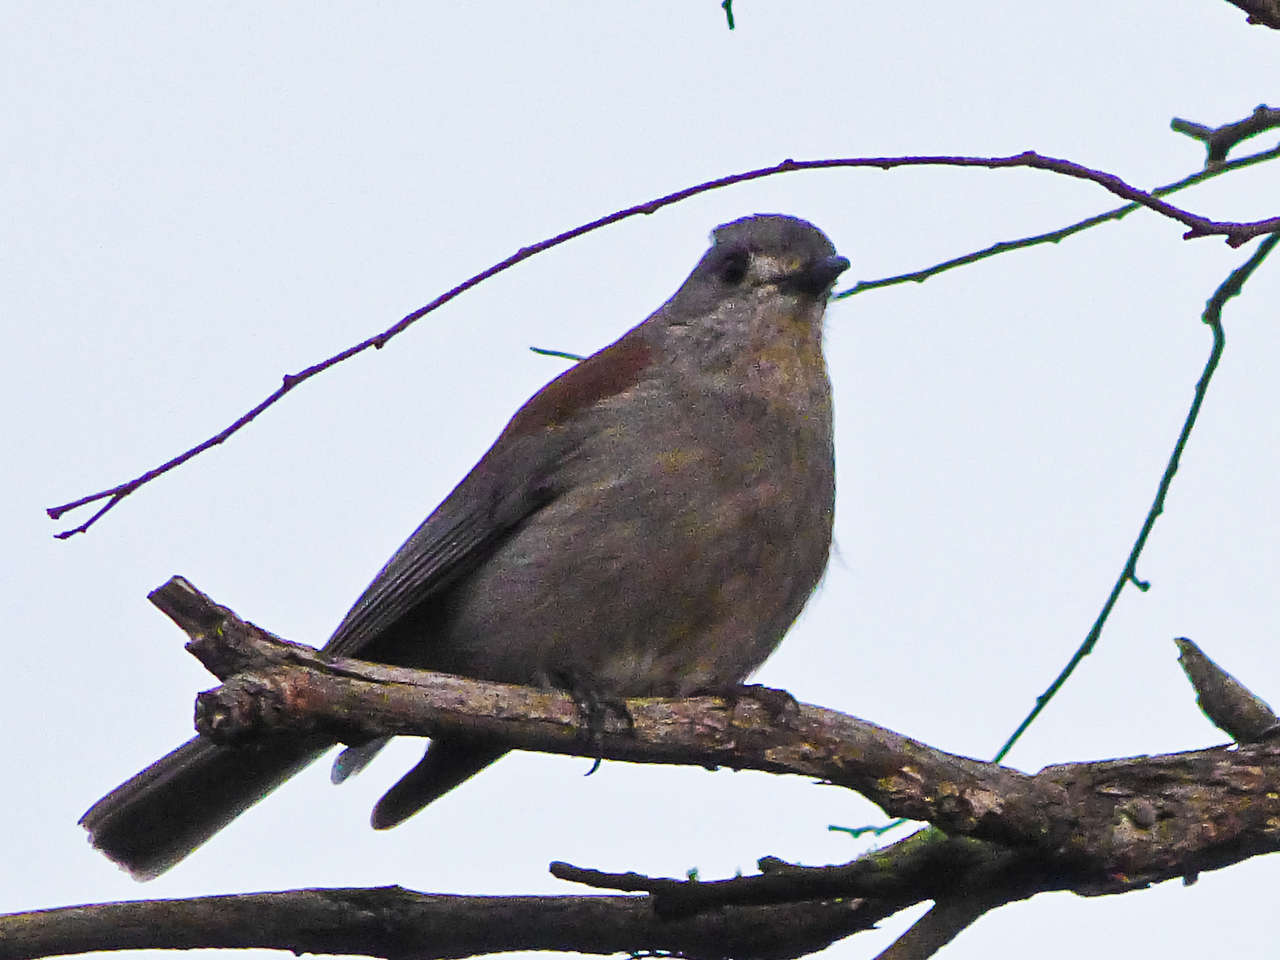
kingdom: Animalia
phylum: Chordata
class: Aves
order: Passeriformes
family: Pachycephalidae
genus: Colluricincla
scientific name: Colluricincla harmonica
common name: Grey shrikethrush
